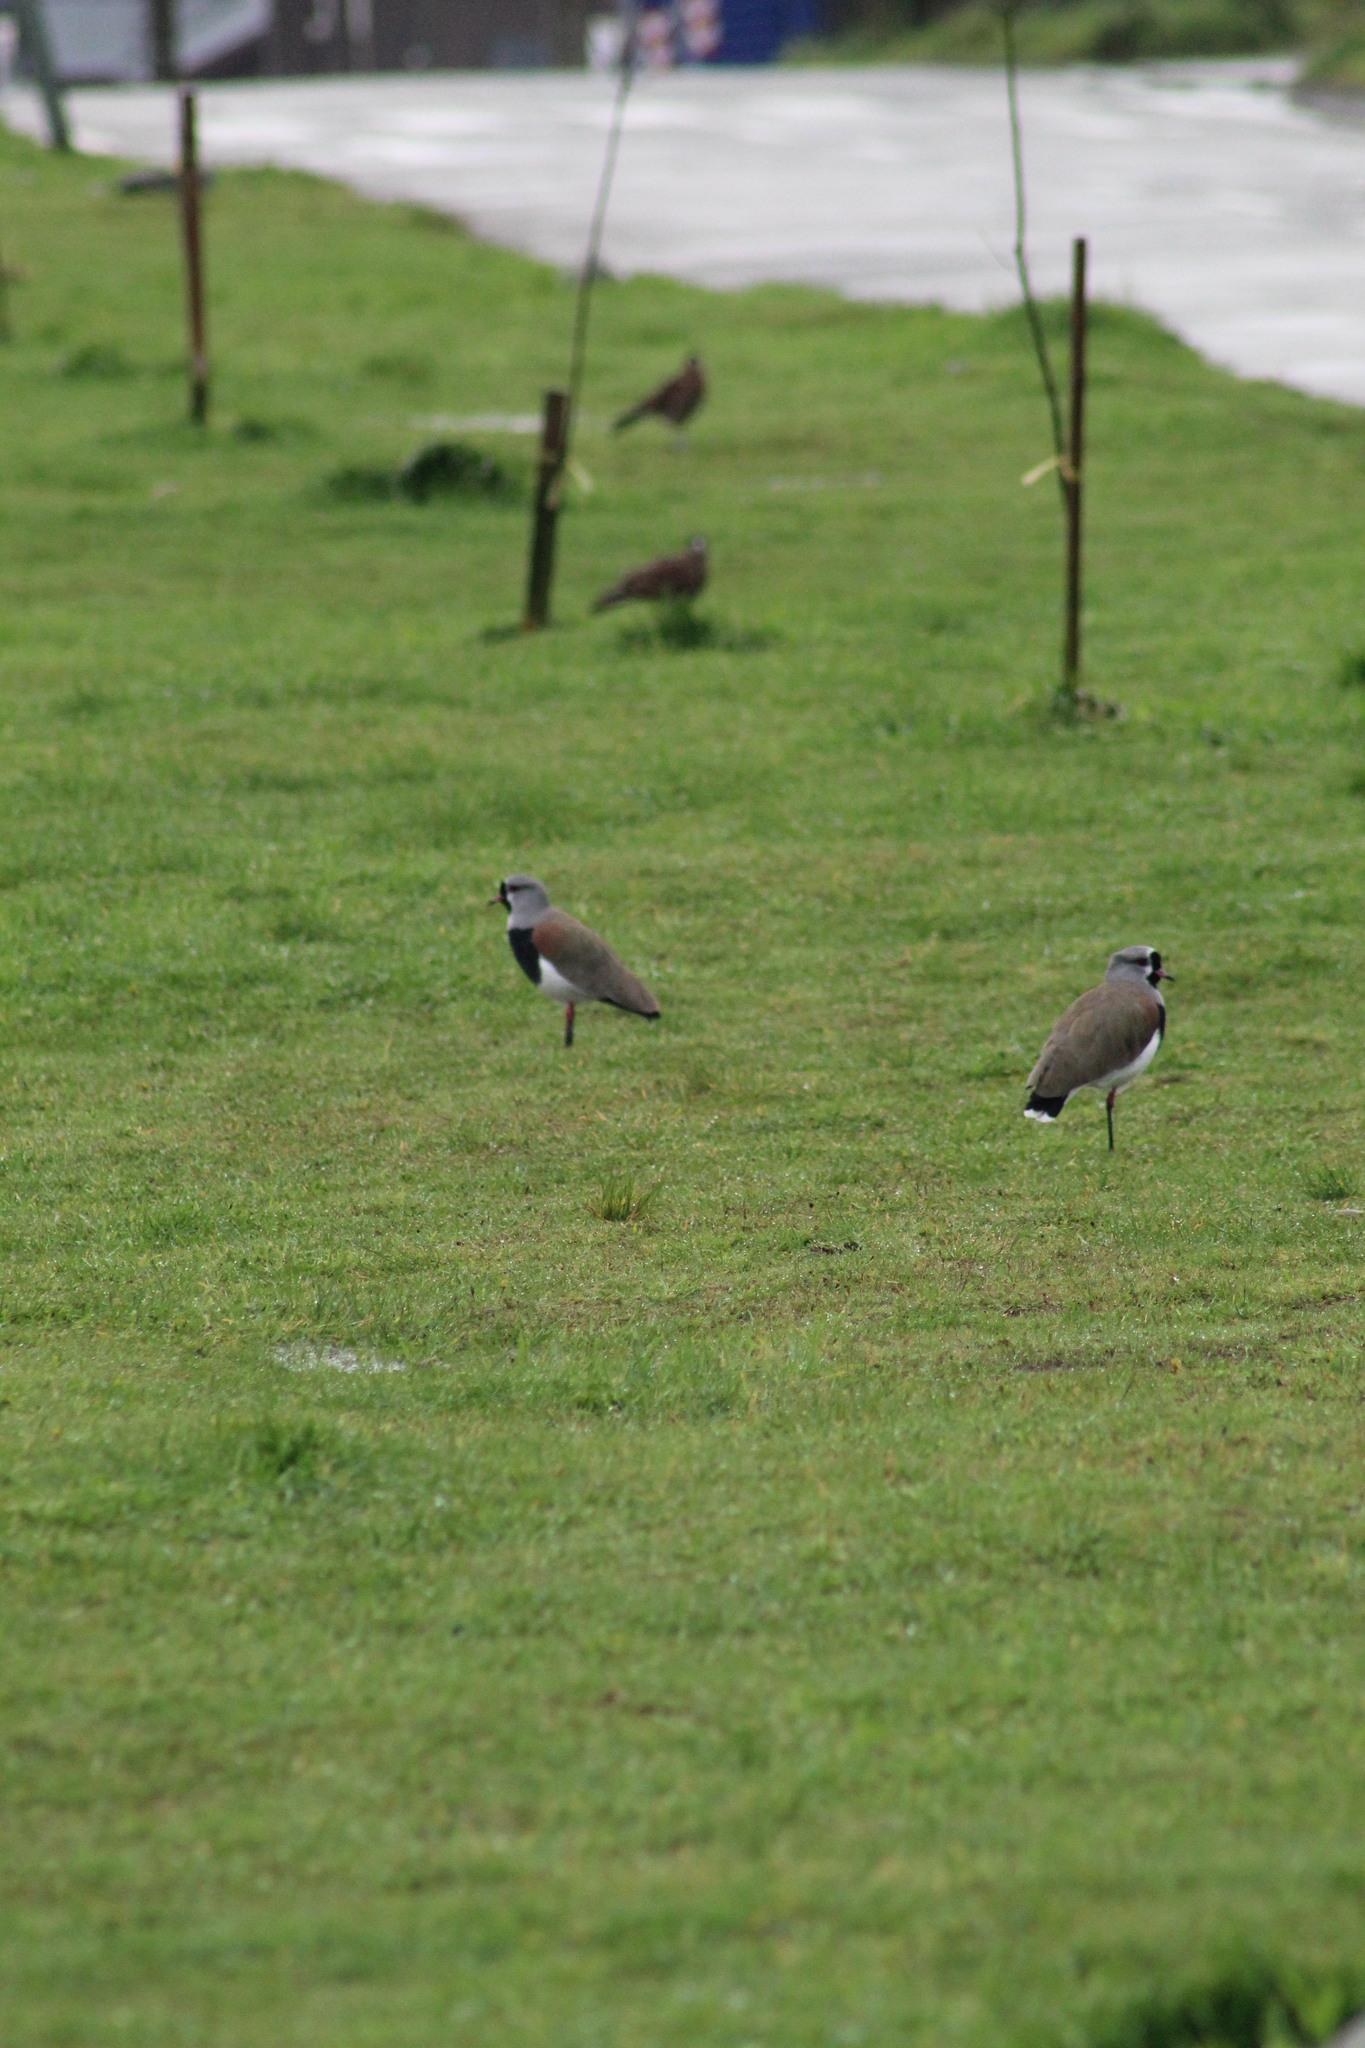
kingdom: Animalia
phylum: Chordata
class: Aves
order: Charadriiformes
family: Charadriidae
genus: Vanellus
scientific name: Vanellus chilensis
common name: Southern lapwing
